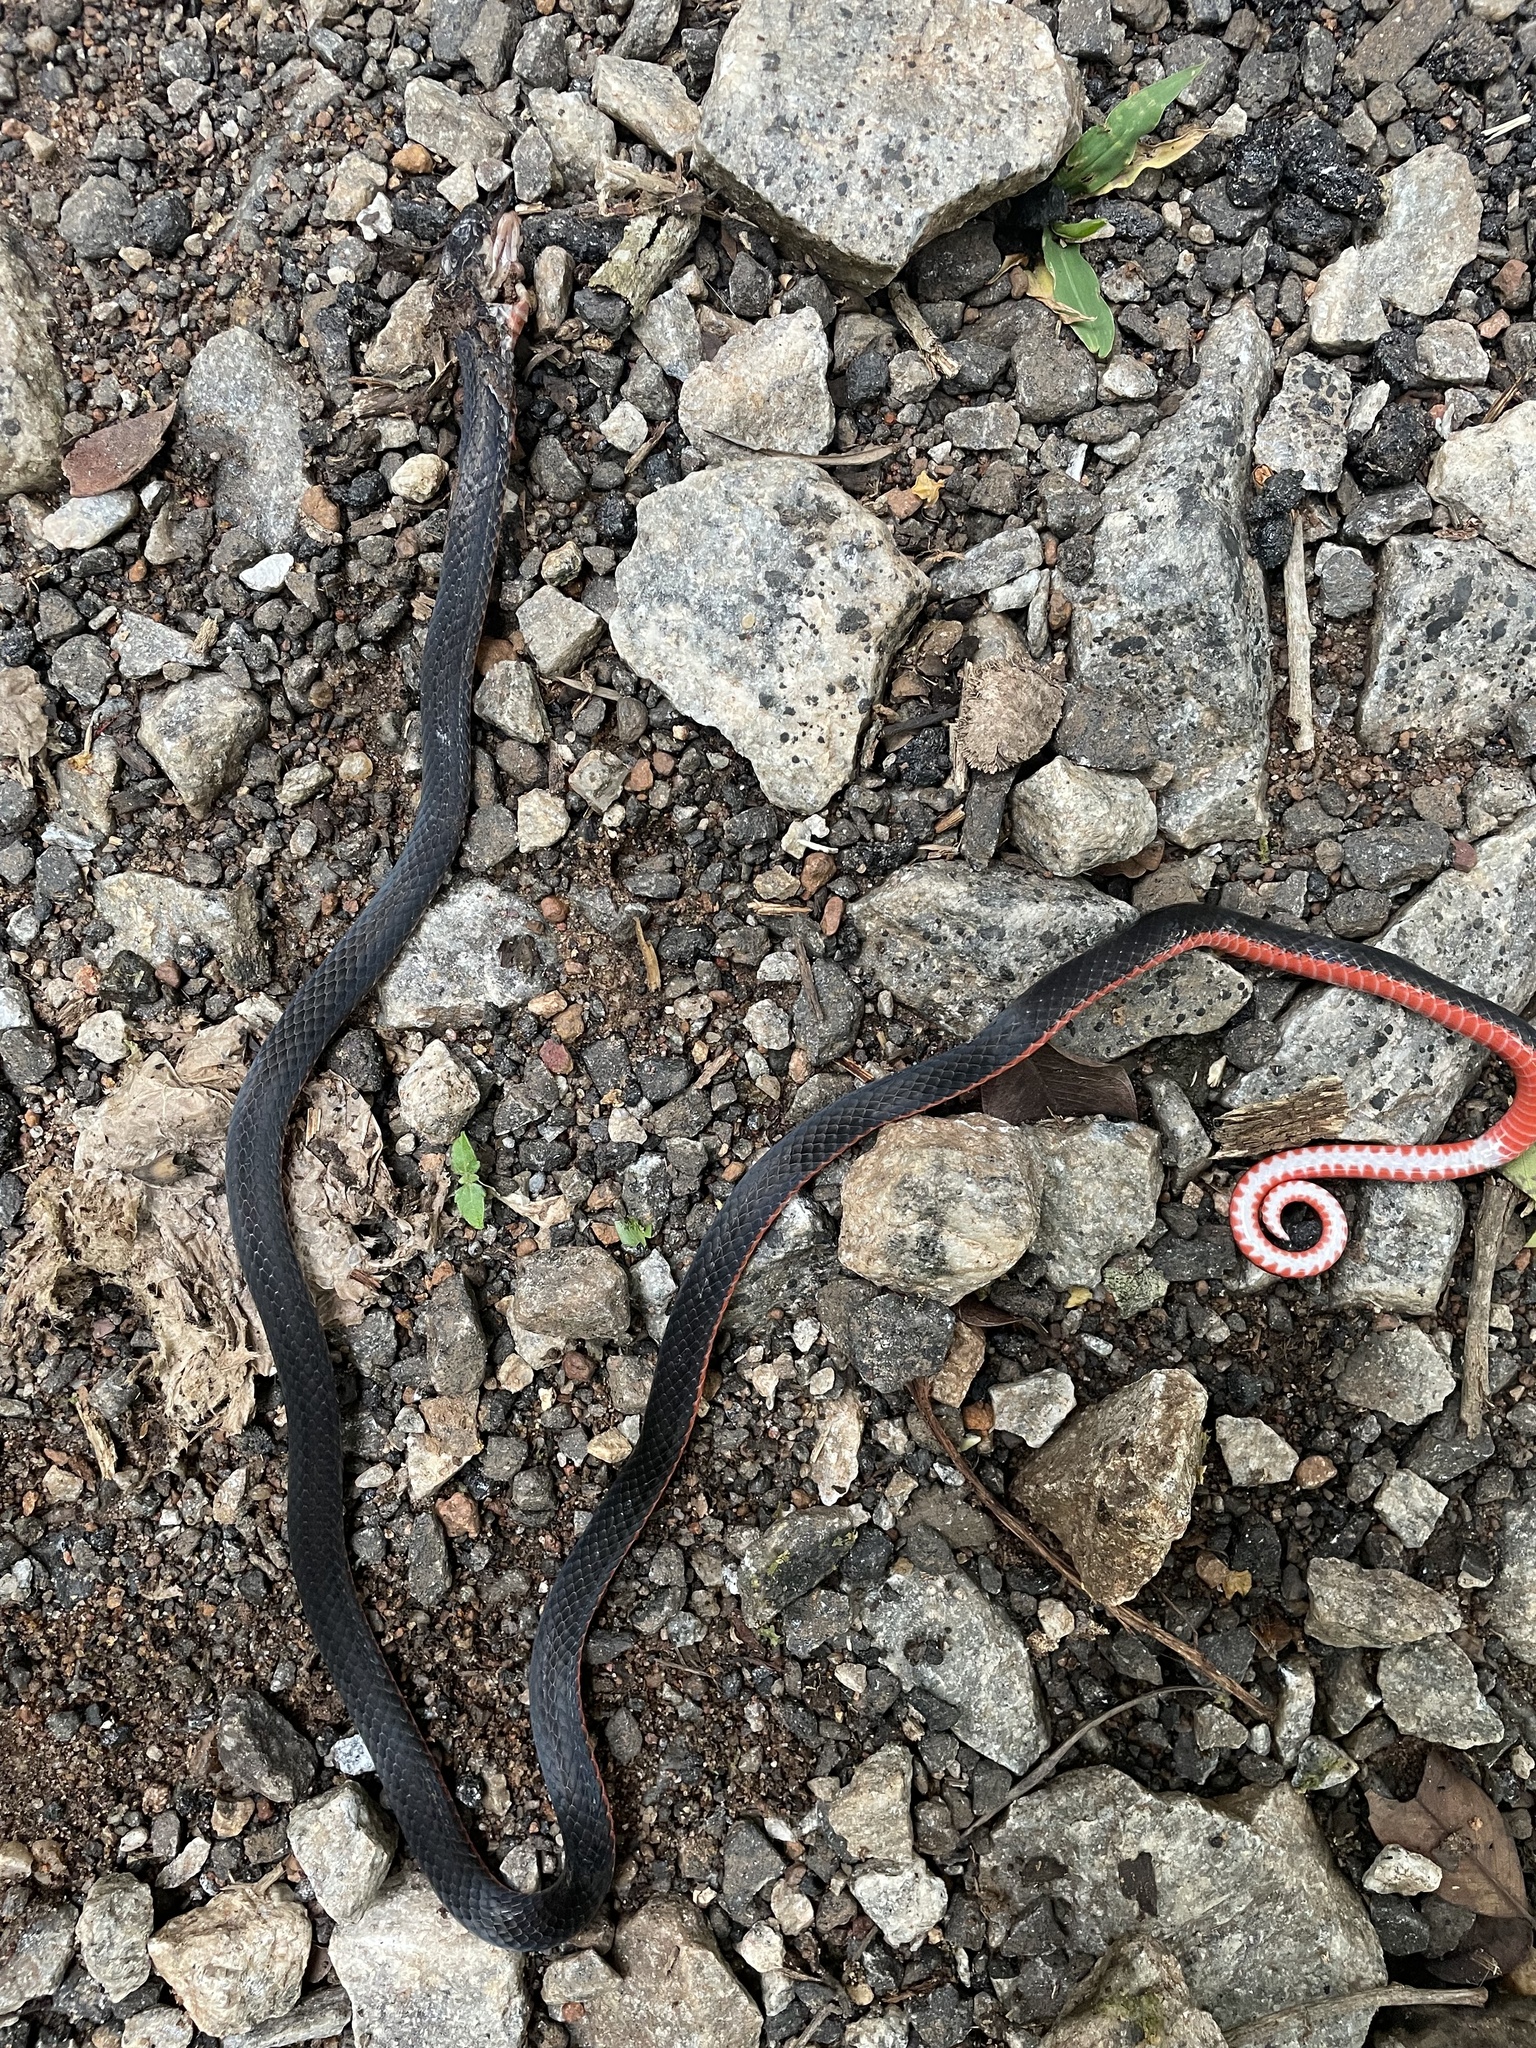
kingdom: Animalia
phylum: Chordata
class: Squamata
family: Elapidae
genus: Calliophis
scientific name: Calliophis nigrescens
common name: Black coral snake
